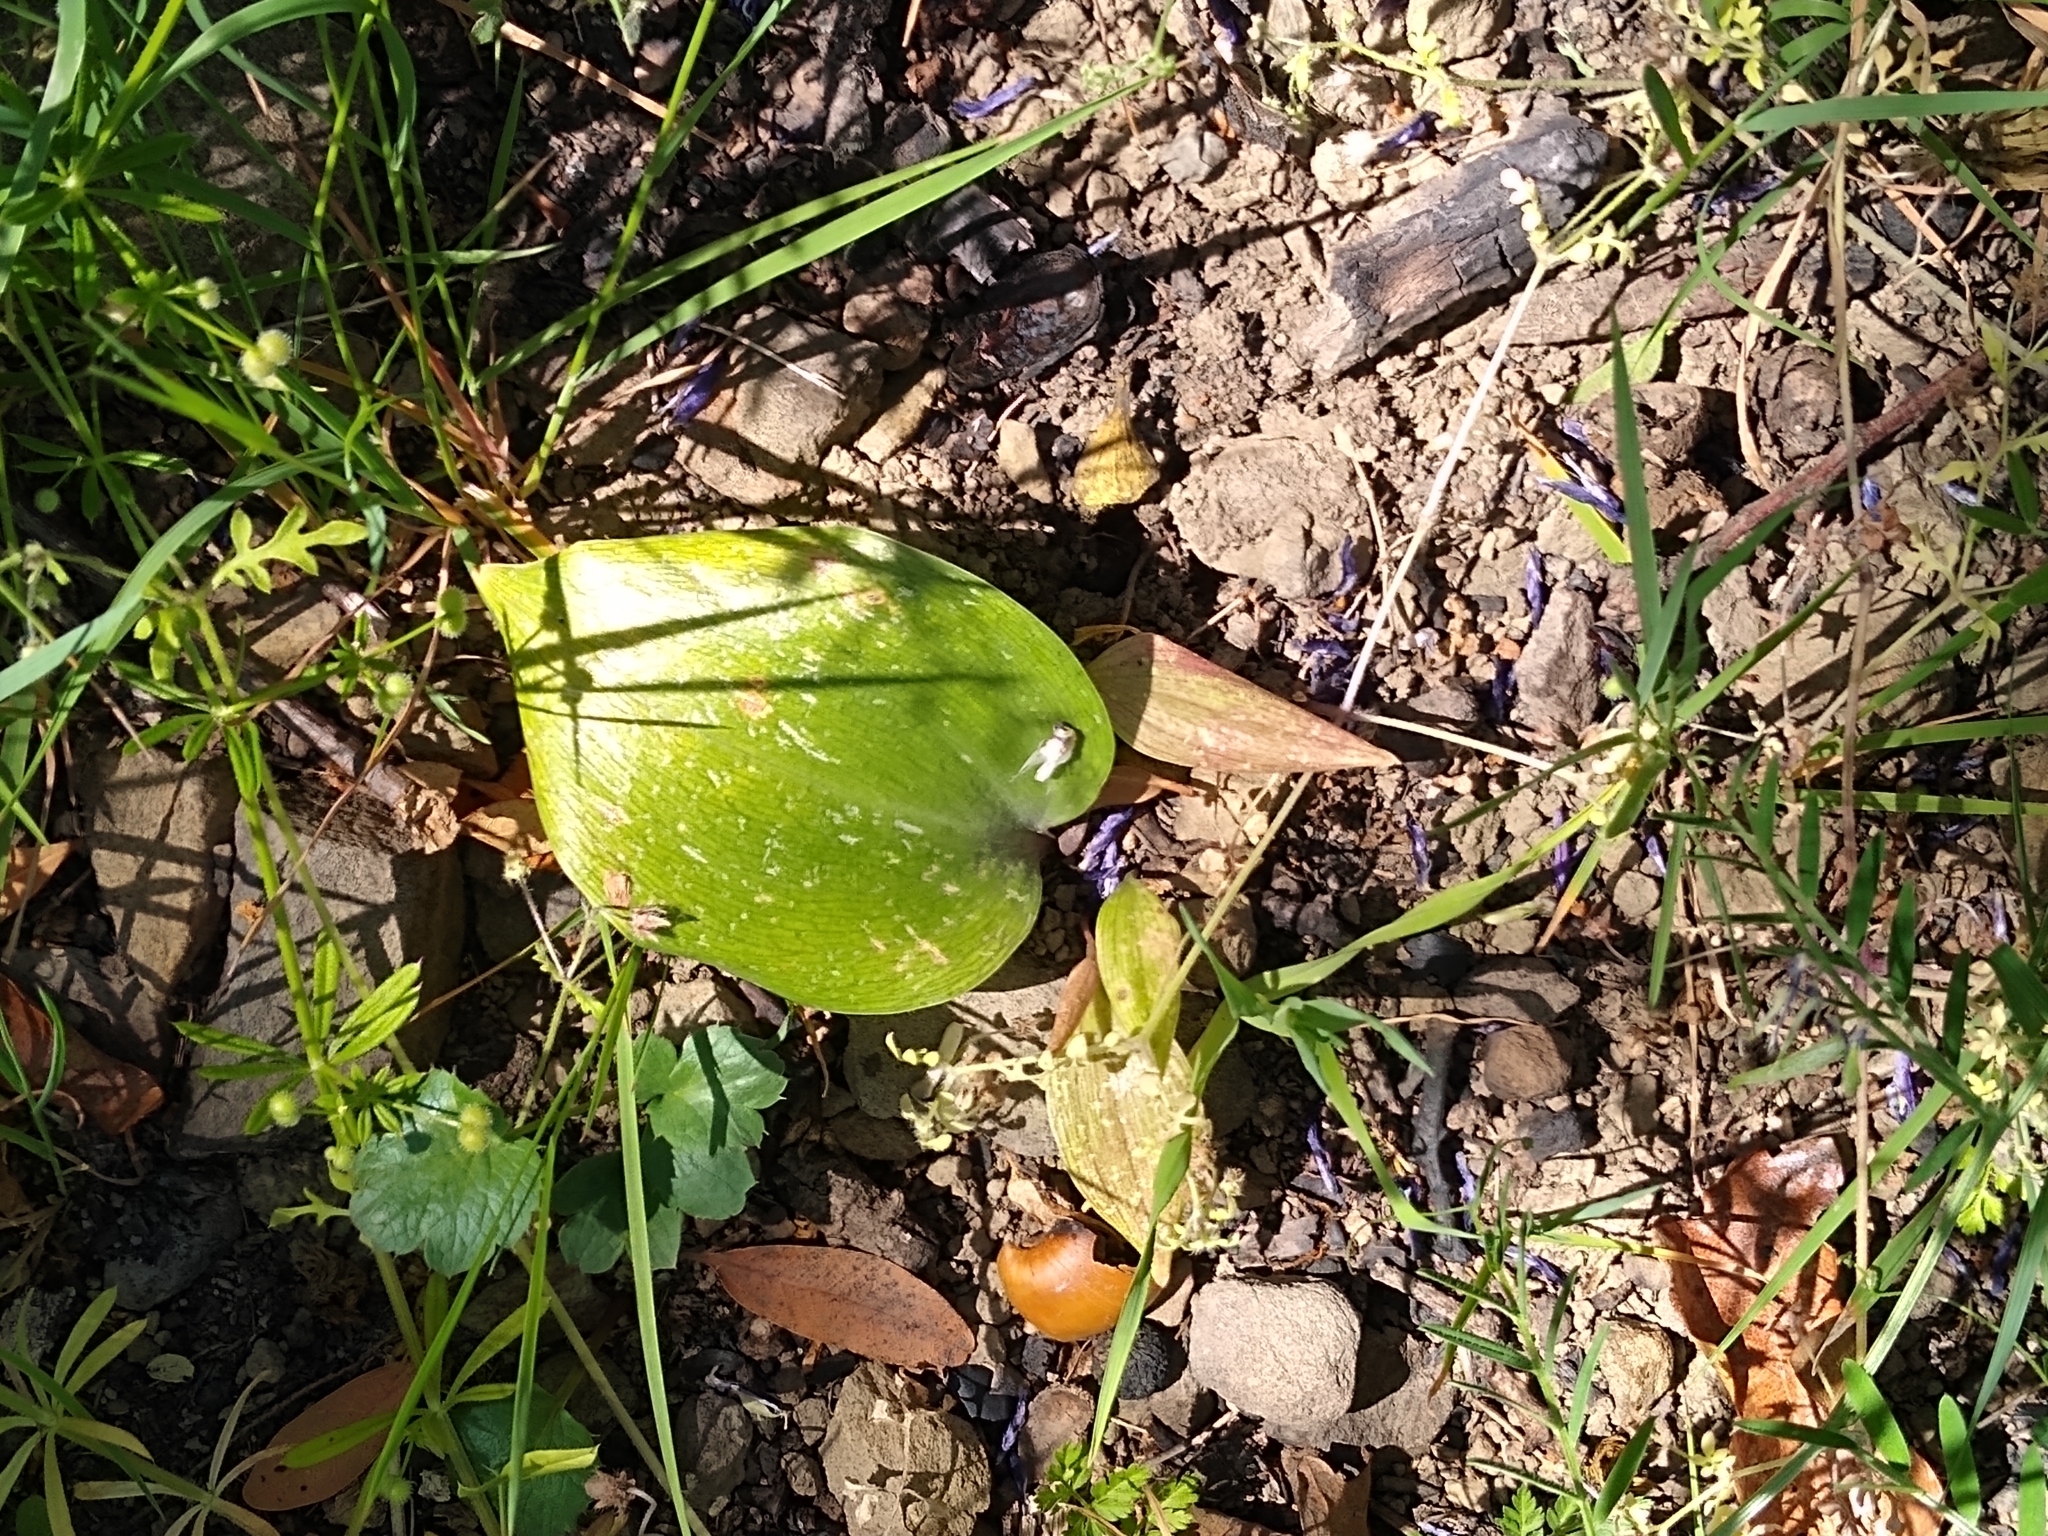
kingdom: Plantae
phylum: Tracheophyta
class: Liliopsida
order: Liliales
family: Liliaceae
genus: Fritillaria
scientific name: Fritillaria affinis
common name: Ojai fritillary
